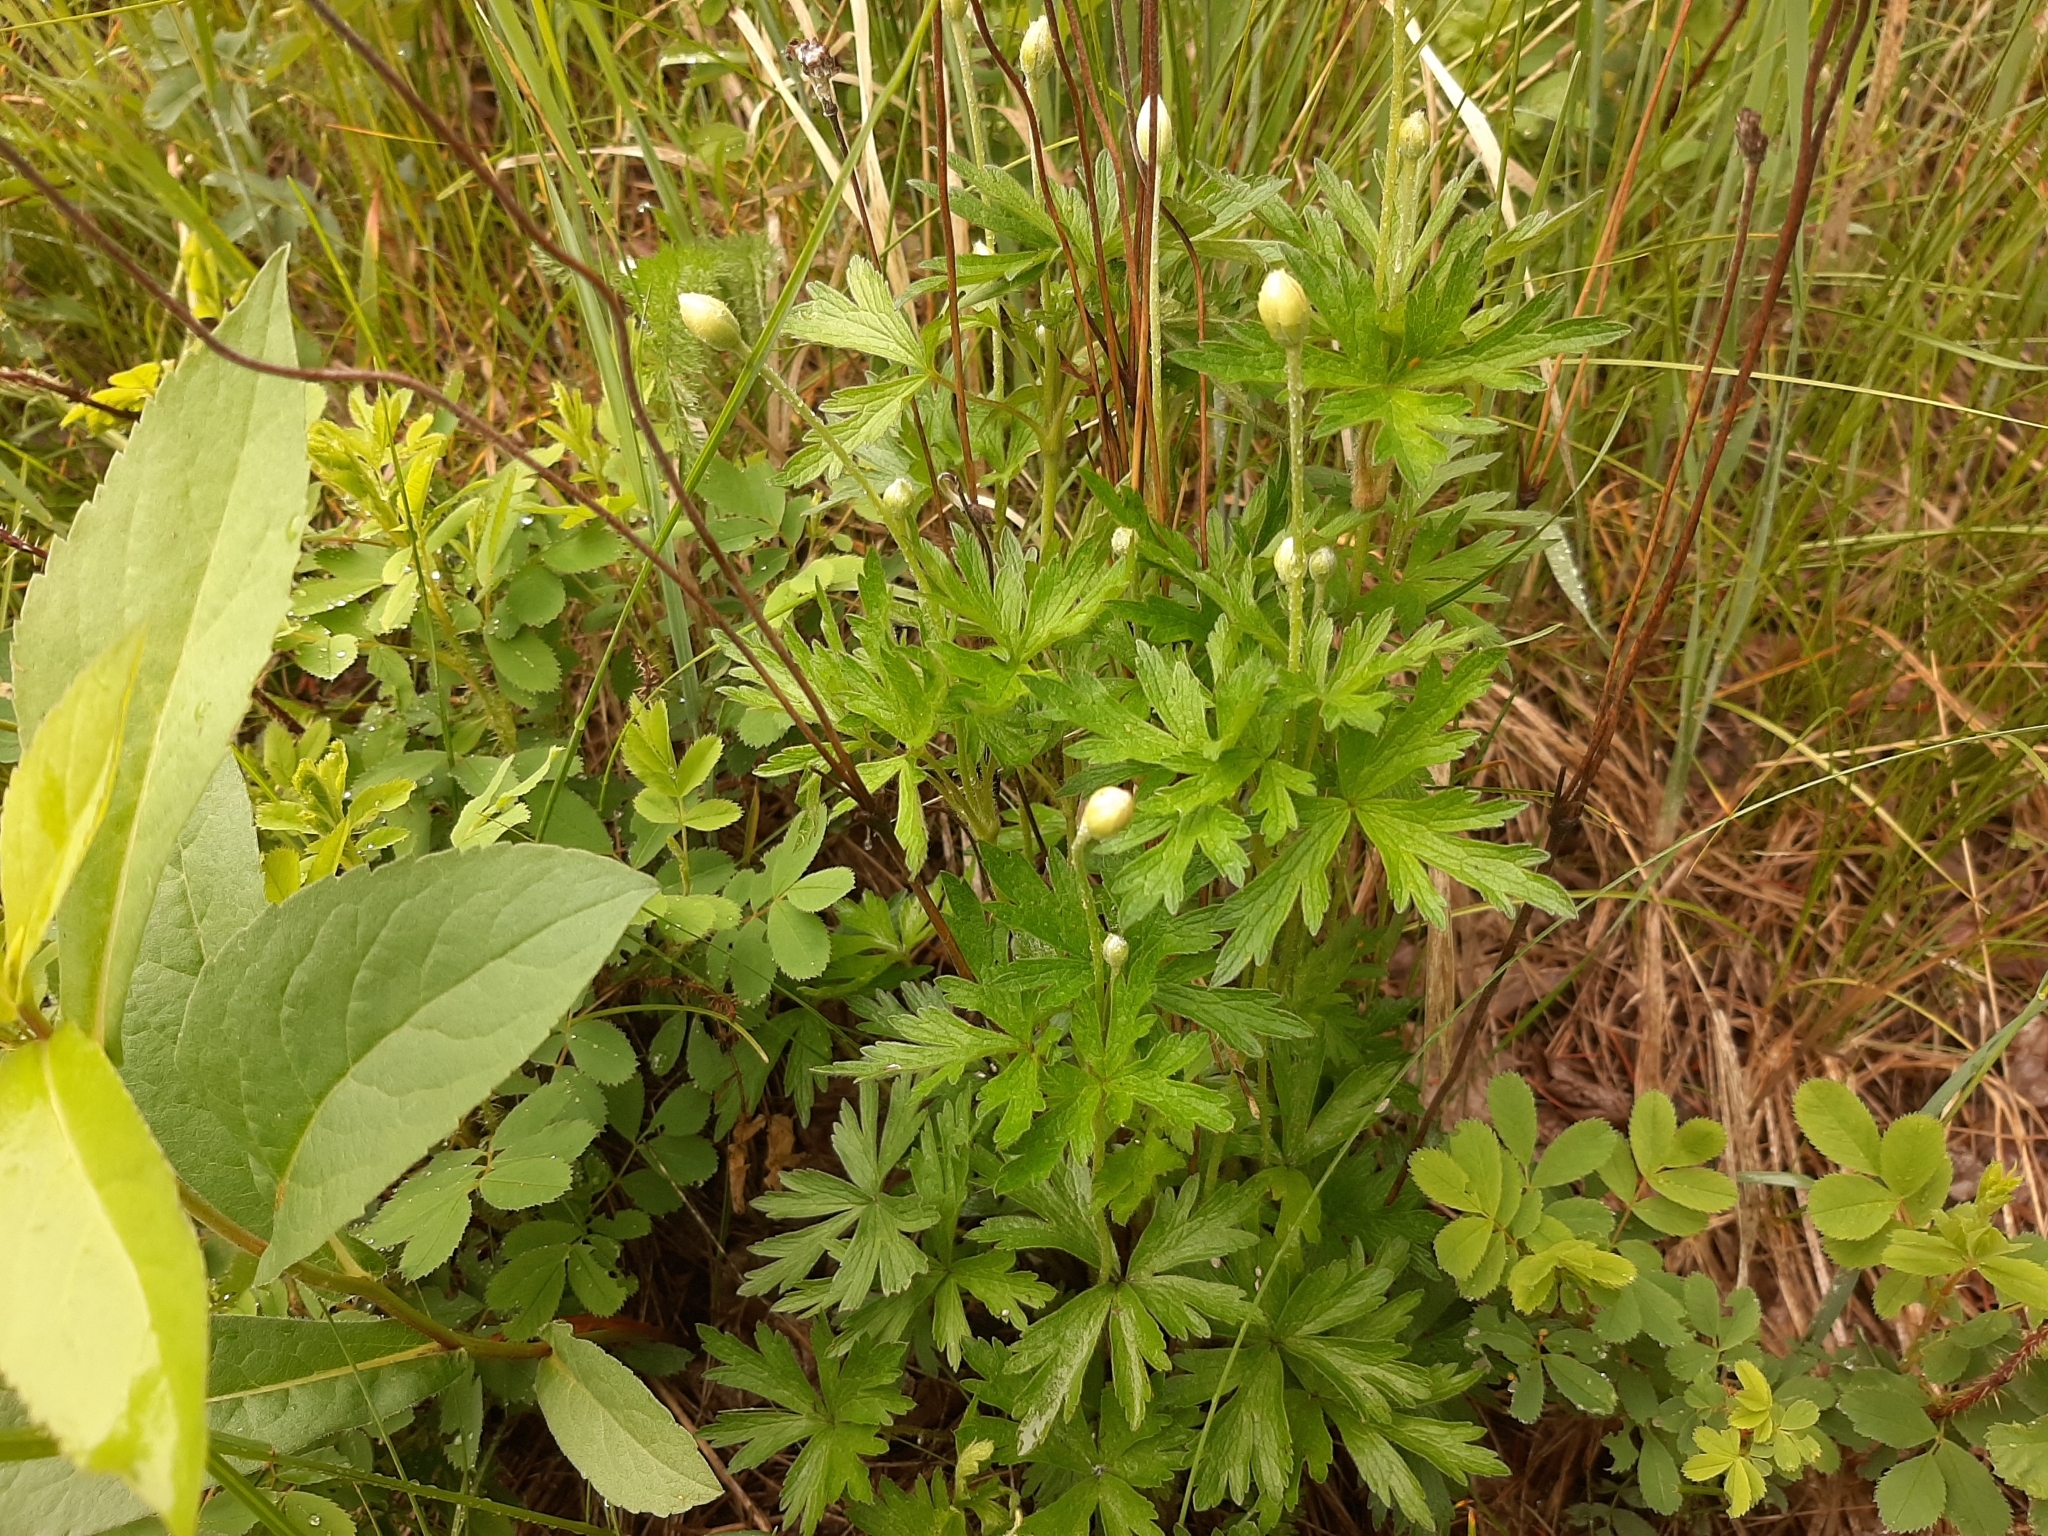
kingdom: Plantae
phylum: Tracheophyta
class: Magnoliopsida
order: Ranunculales
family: Ranunculaceae
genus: Anemone
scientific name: Anemone cylindrica
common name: Candle anemone
